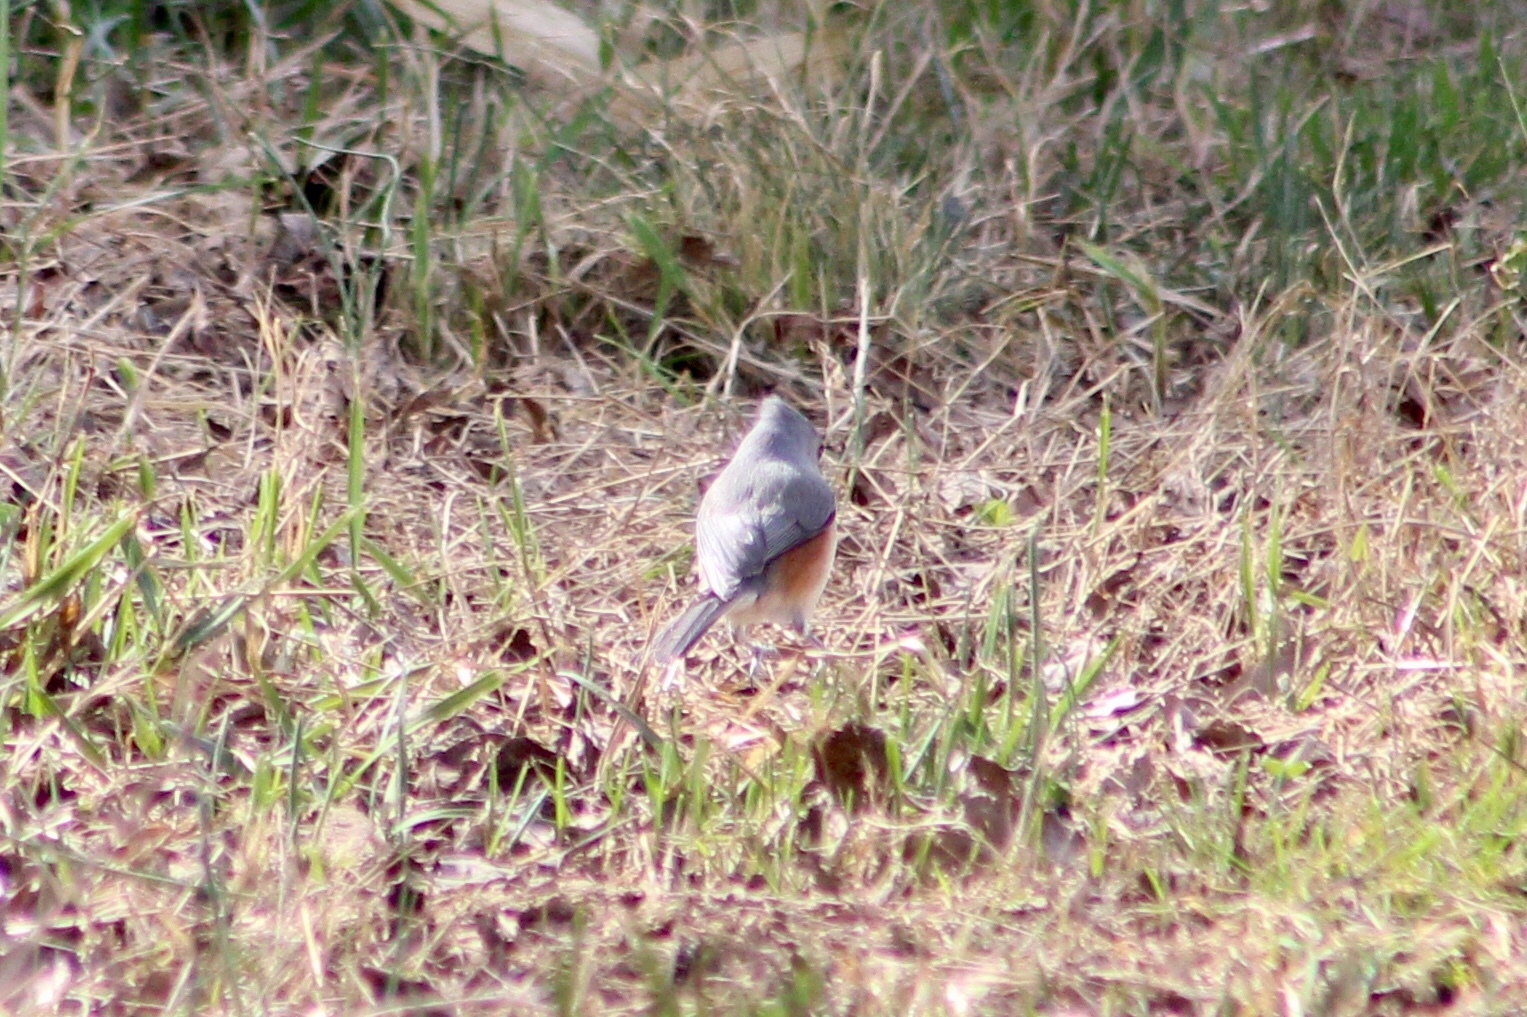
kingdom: Animalia
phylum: Chordata
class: Aves
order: Passeriformes
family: Paridae
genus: Baeolophus
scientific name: Baeolophus bicolor
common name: Tufted titmouse
